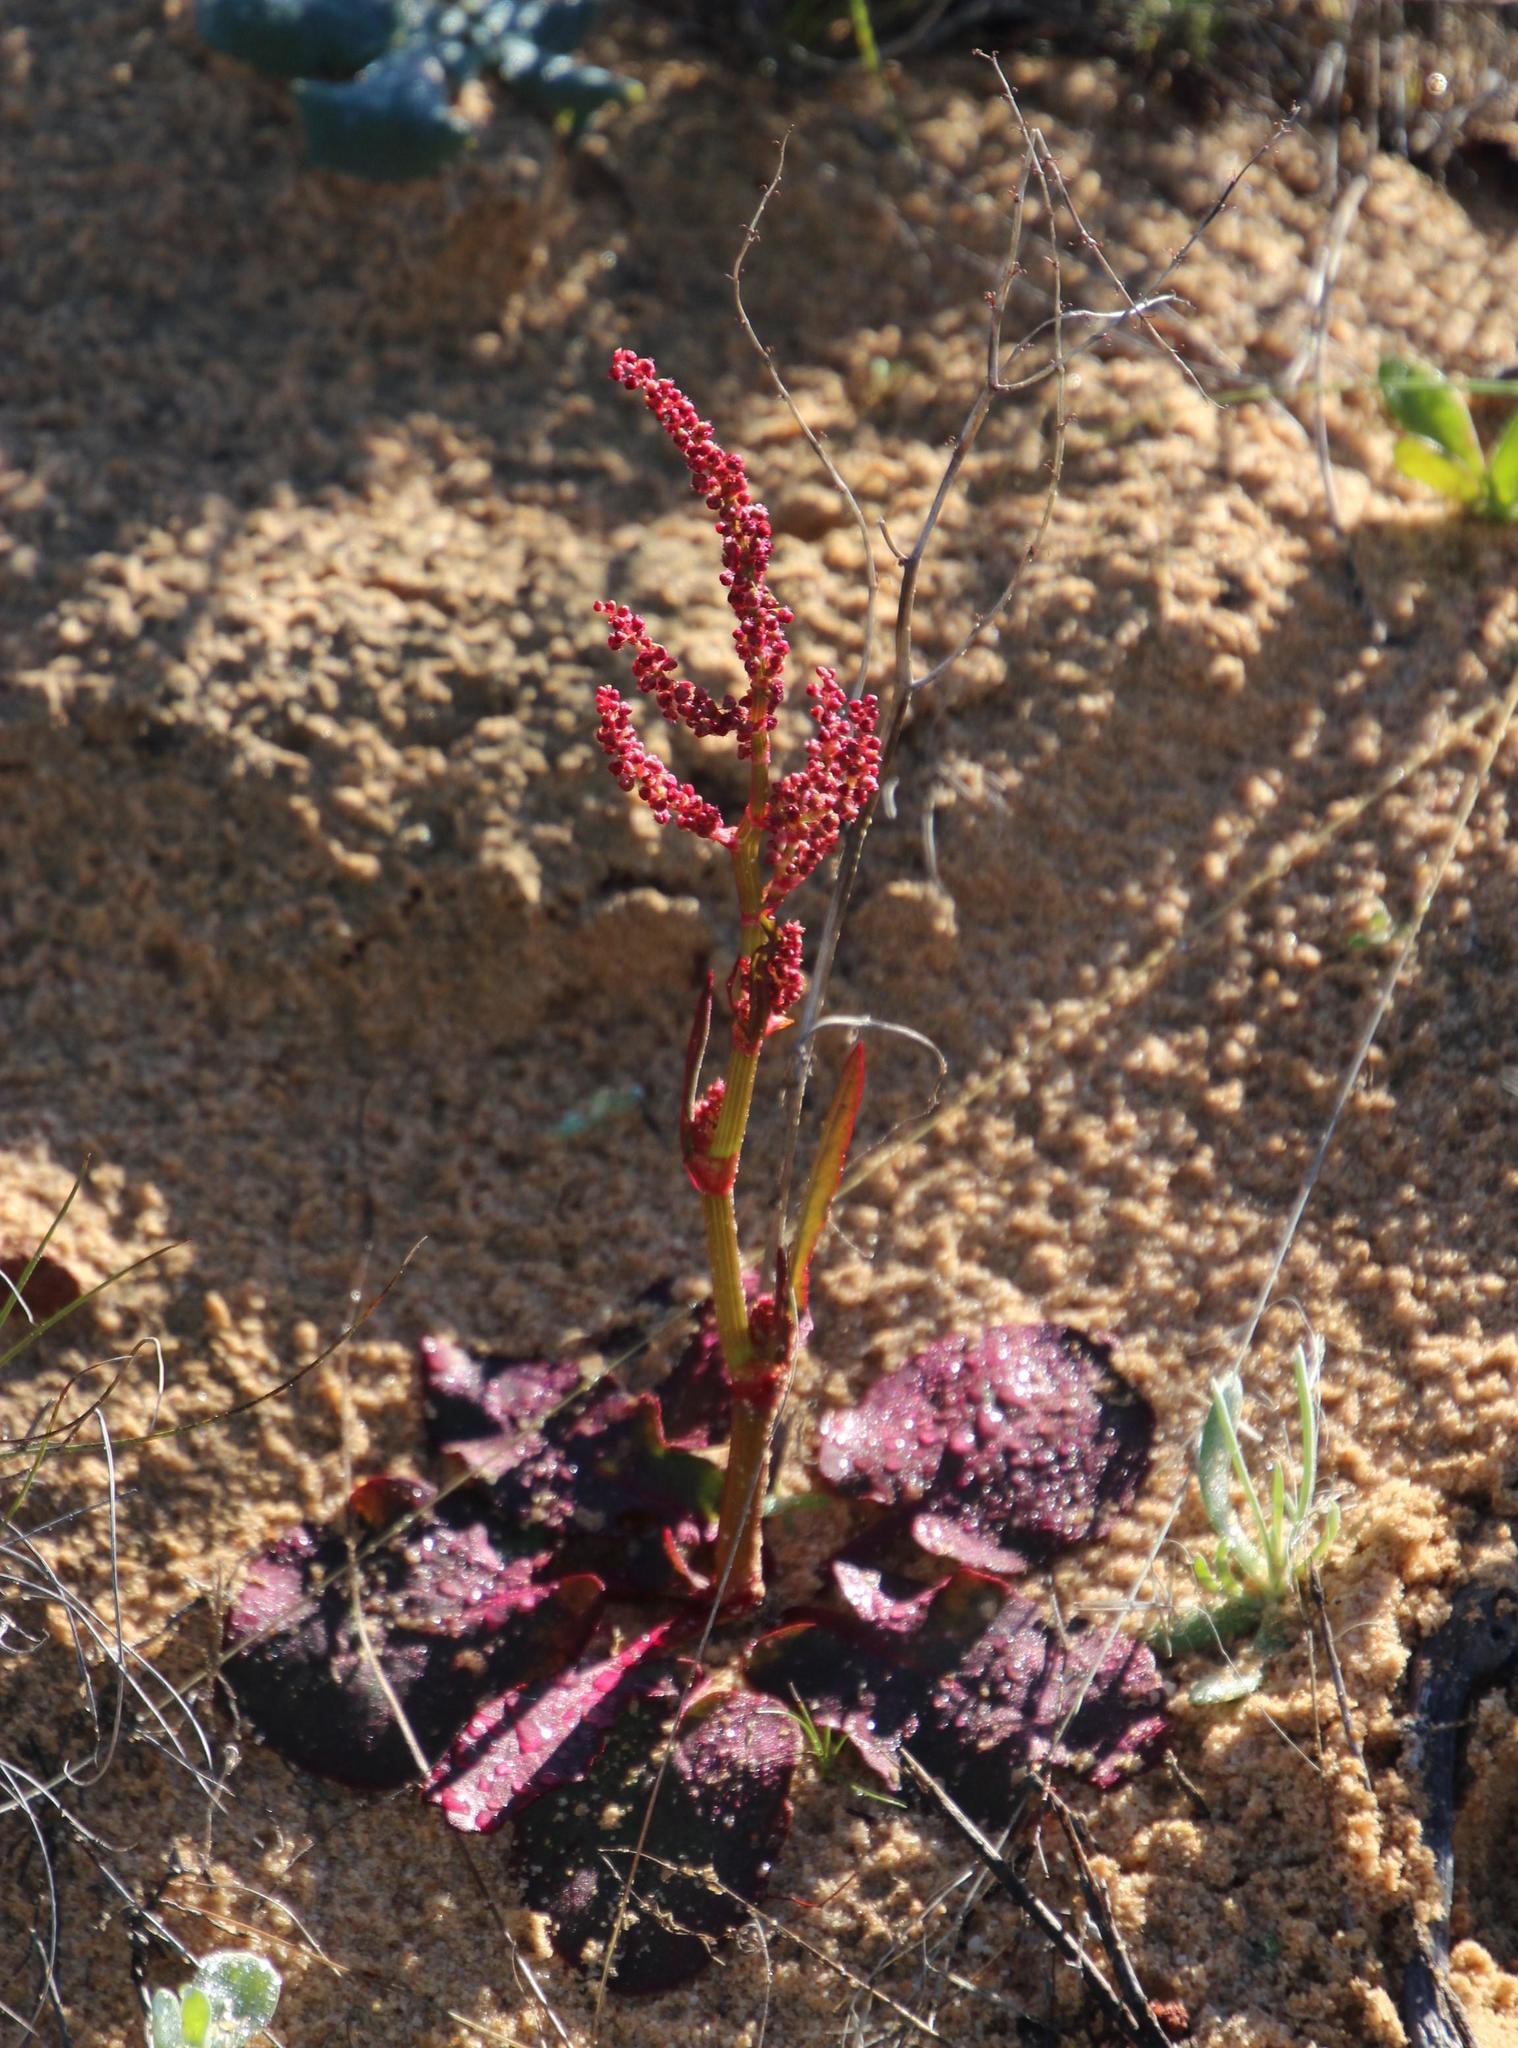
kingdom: Plantae
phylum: Tracheophyta
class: Magnoliopsida
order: Caryophyllales
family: Polygonaceae
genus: Rumex
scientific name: Rumex cordatus
